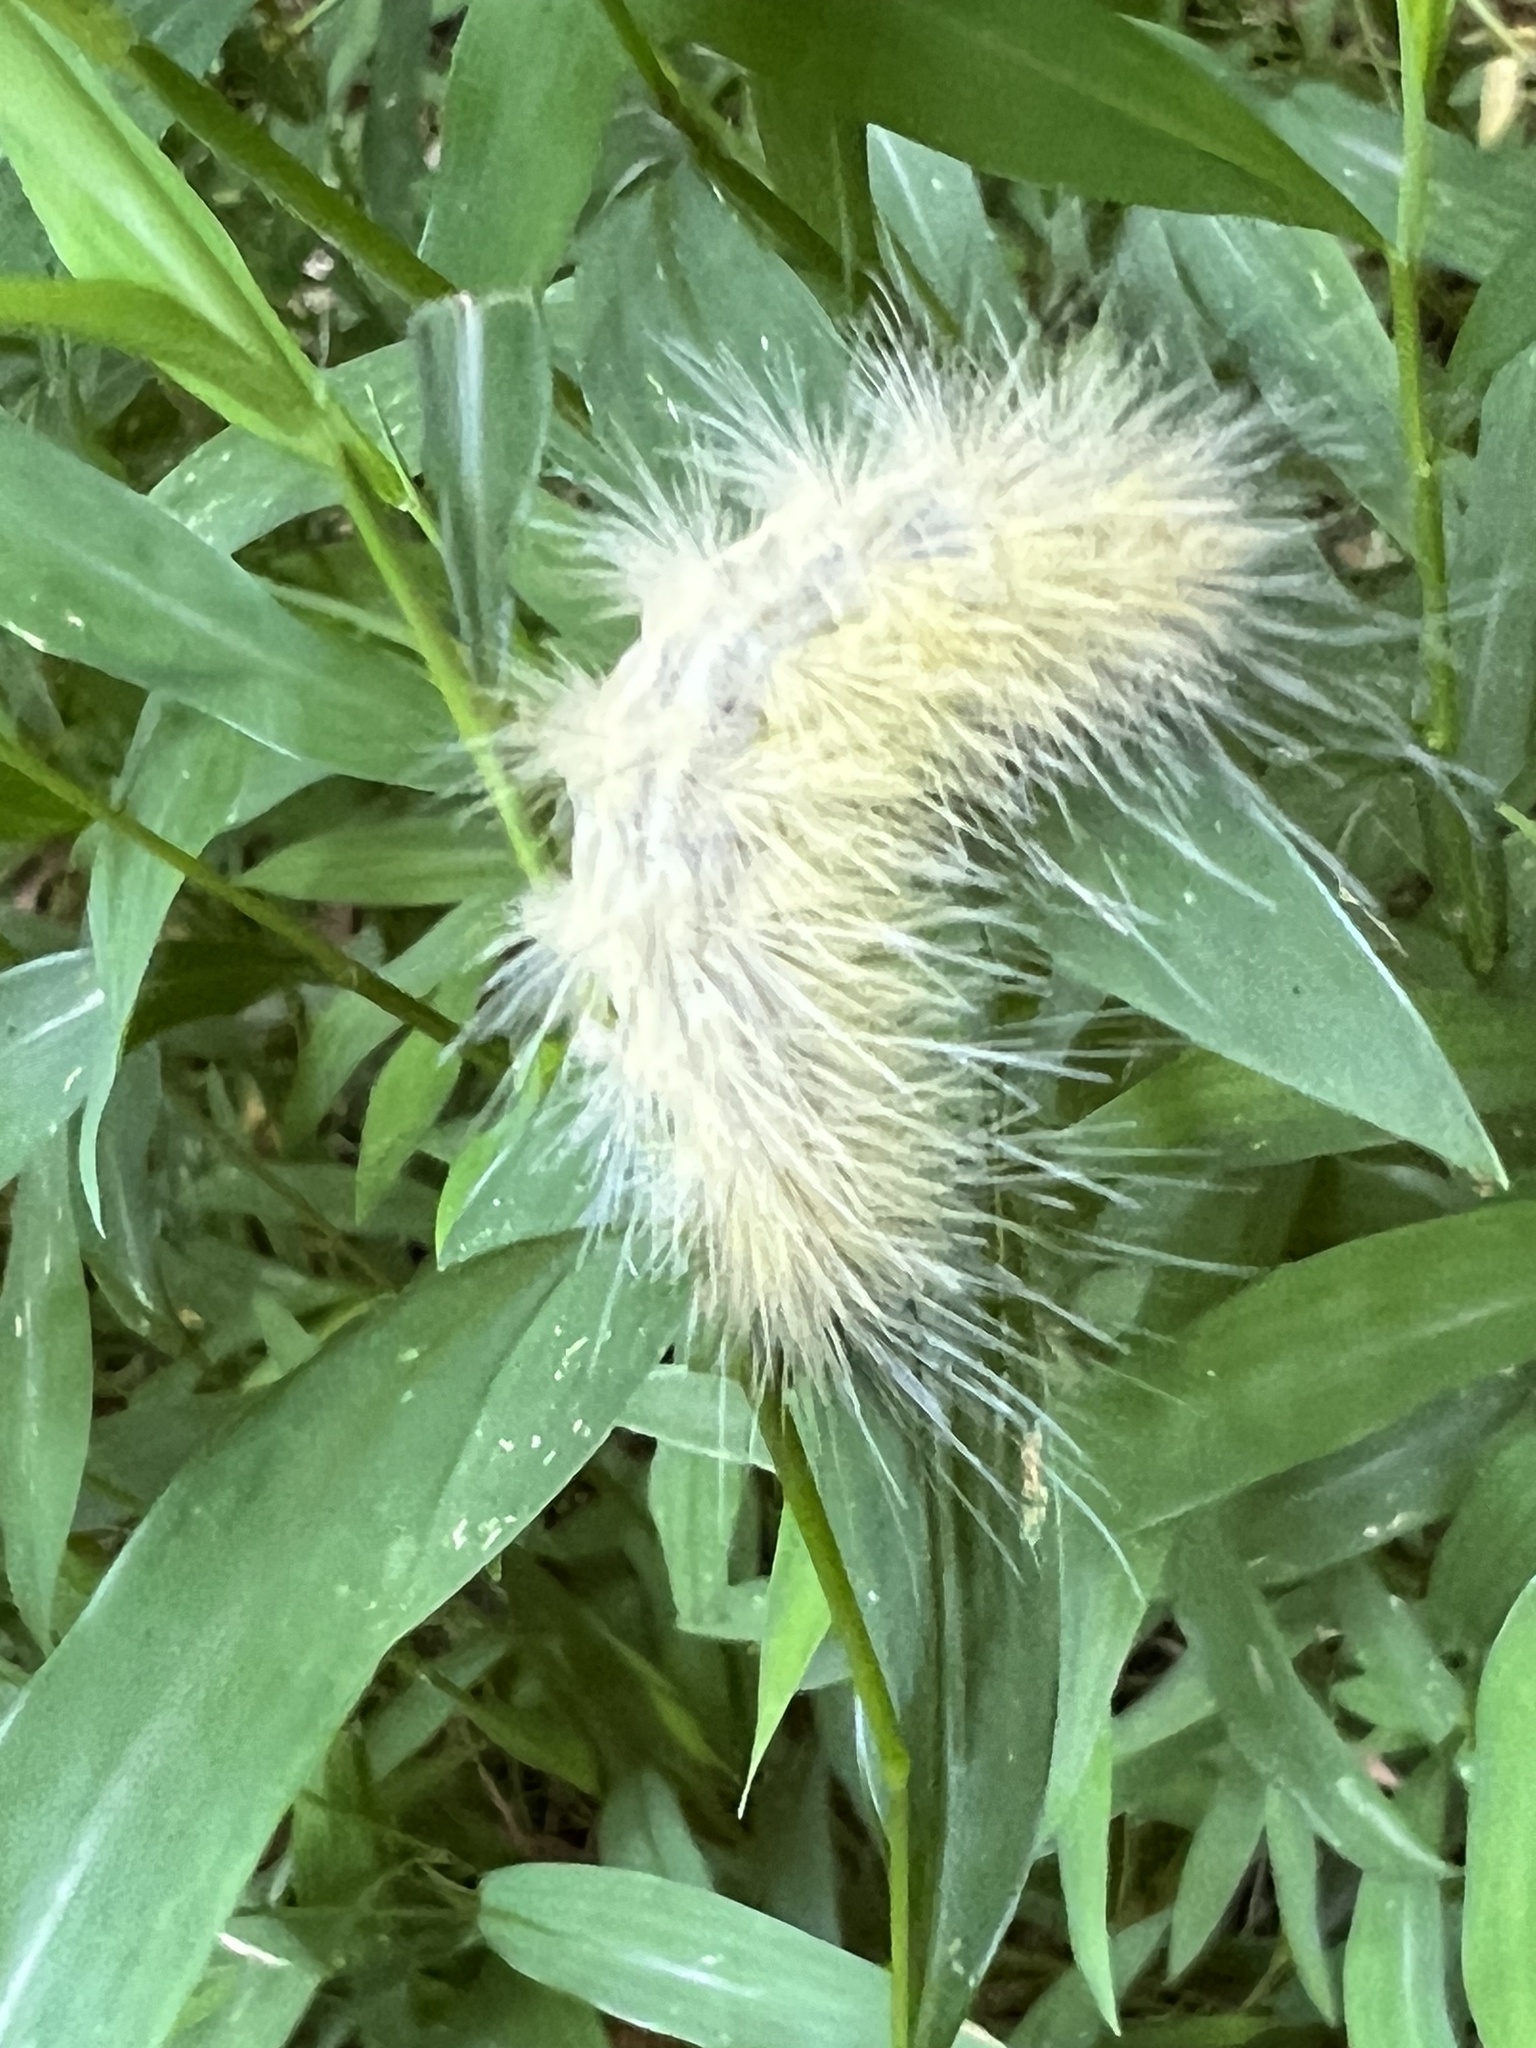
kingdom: Animalia
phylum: Arthropoda
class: Insecta
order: Lepidoptera
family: Erebidae
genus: Spilosoma
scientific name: Spilosoma virginica
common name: Virginia tiger moth
